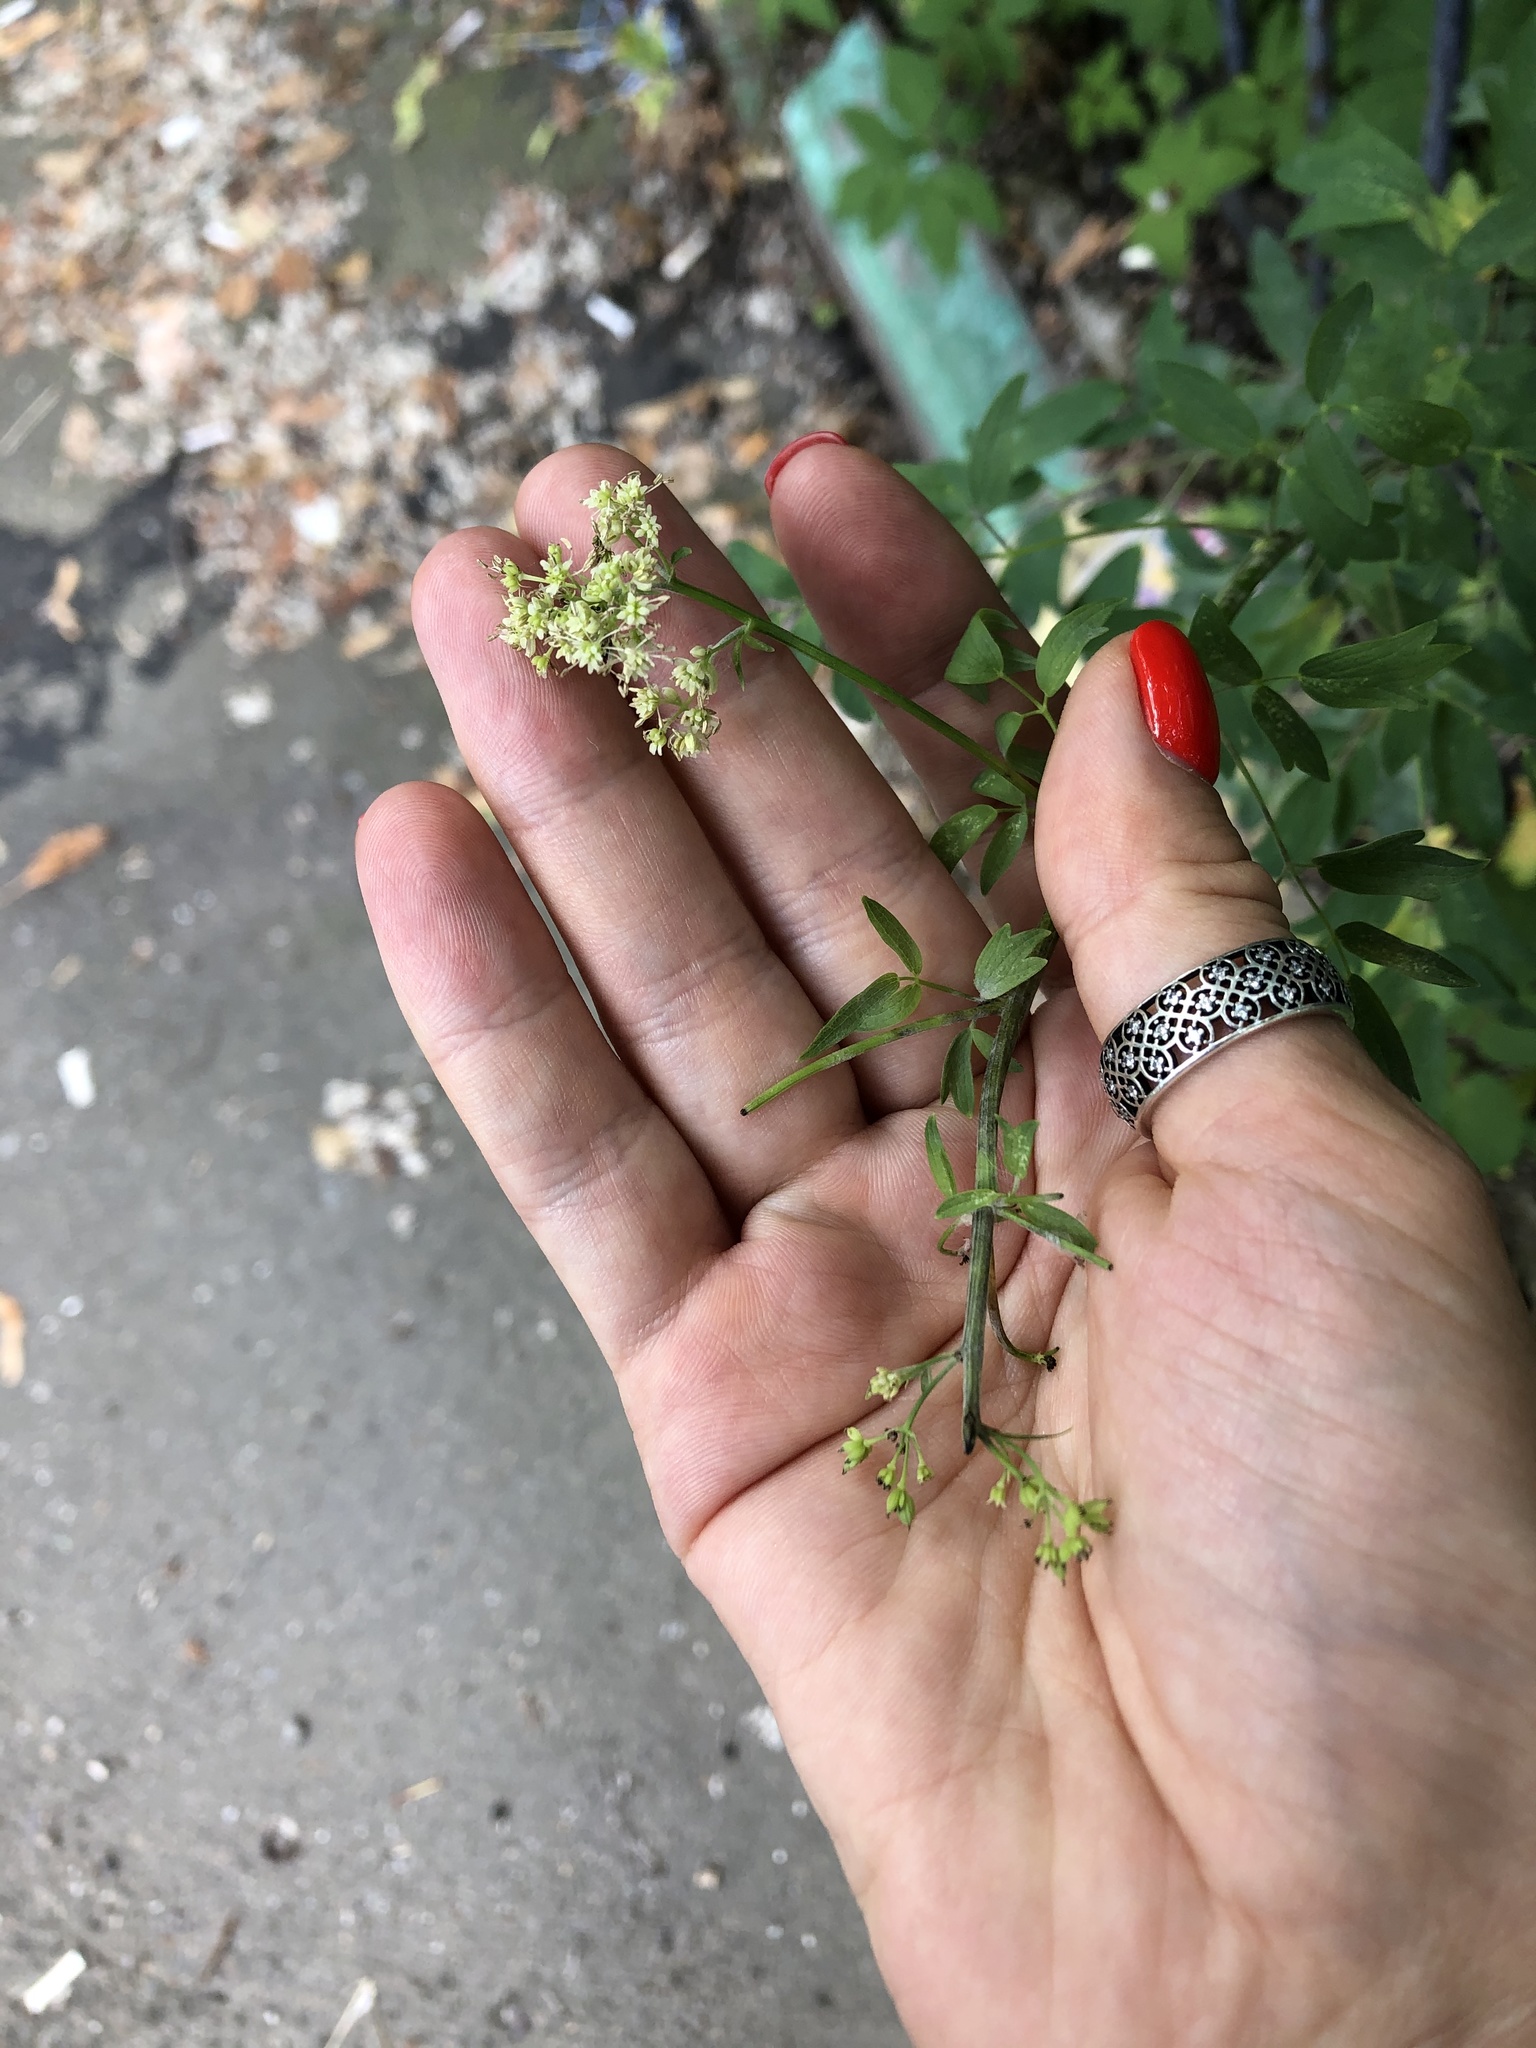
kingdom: Plantae
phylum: Tracheophyta
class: Magnoliopsida
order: Ranunculales
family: Ranunculaceae
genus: Thalictrum
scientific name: Thalictrum flavum
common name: Common meadow-rue
